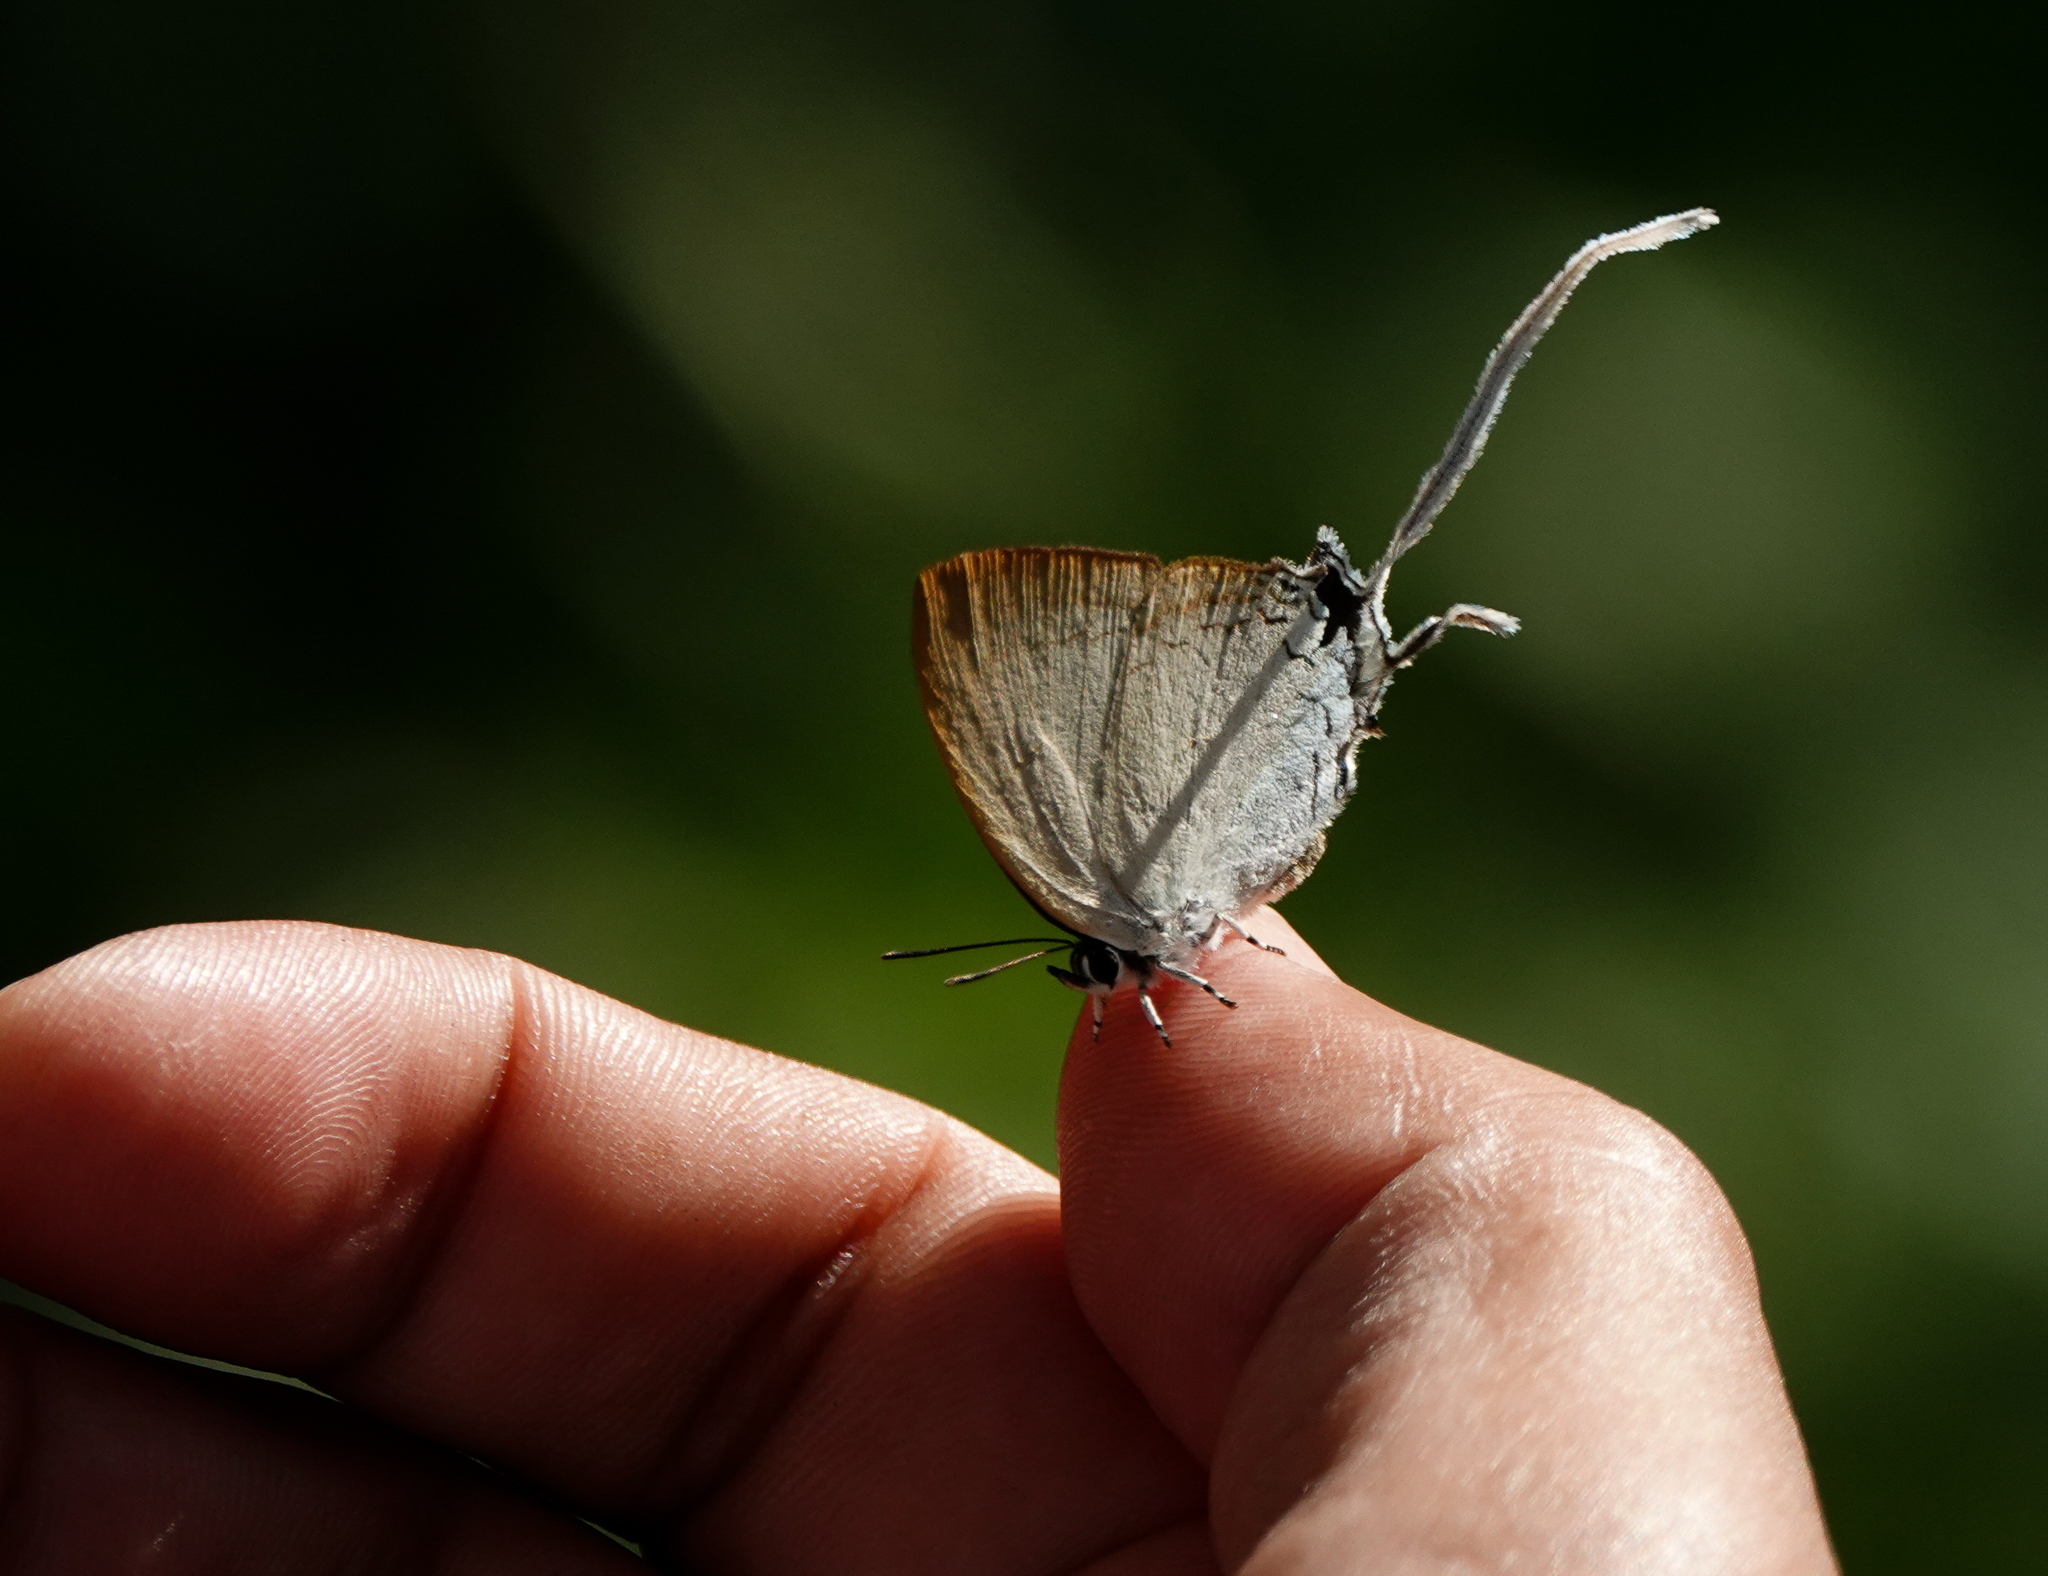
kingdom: Animalia
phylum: Arthropoda
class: Insecta
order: Lepidoptera
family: Lycaenidae
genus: Cheritra
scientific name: Cheritra freja
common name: Common imperial
